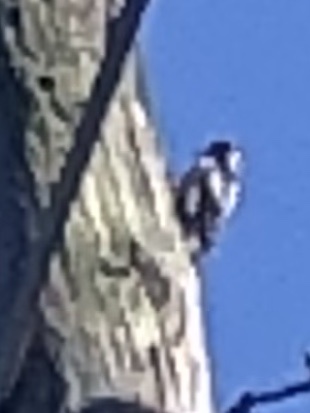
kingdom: Animalia
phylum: Chordata
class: Aves
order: Piciformes
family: Picidae
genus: Dryobates
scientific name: Dryobates pubescens
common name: Downy woodpecker
